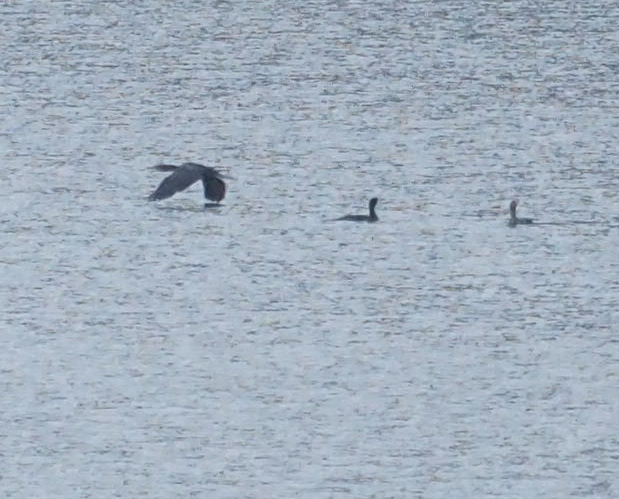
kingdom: Animalia
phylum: Chordata
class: Aves
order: Suliformes
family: Phalacrocoracidae
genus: Phalacrocorax
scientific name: Phalacrocorax auritus
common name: Double-crested cormorant
